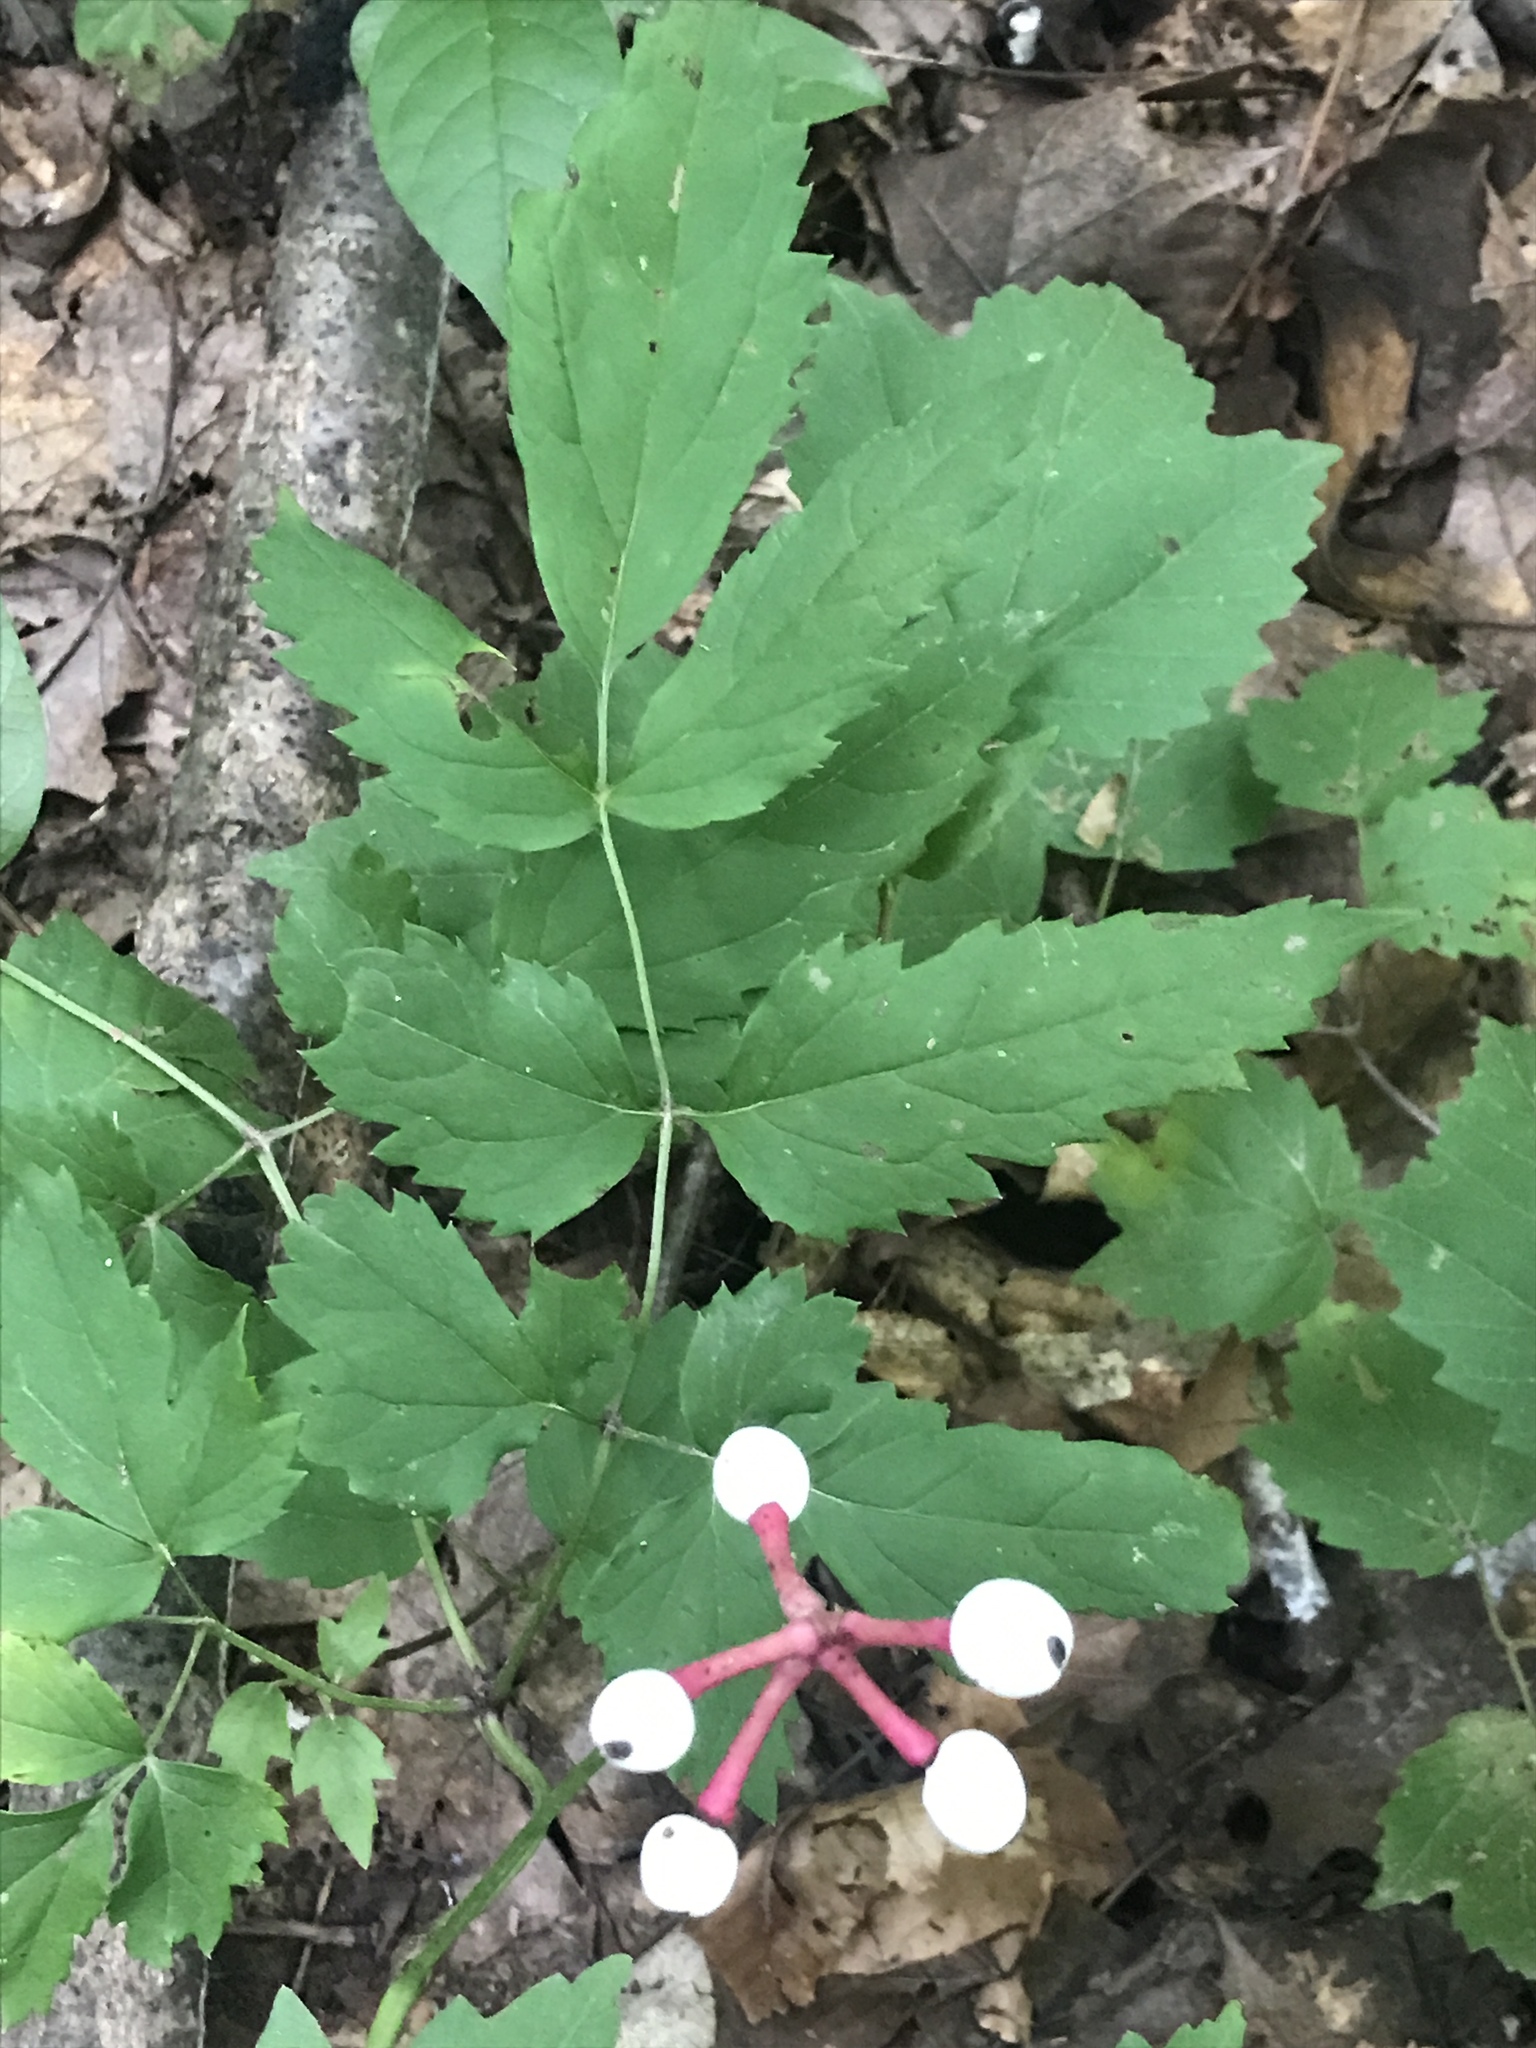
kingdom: Plantae
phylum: Tracheophyta
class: Magnoliopsida
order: Ranunculales
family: Ranunculaceae
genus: Actaea
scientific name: Actaea pachypoda
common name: Doll's-eyes
